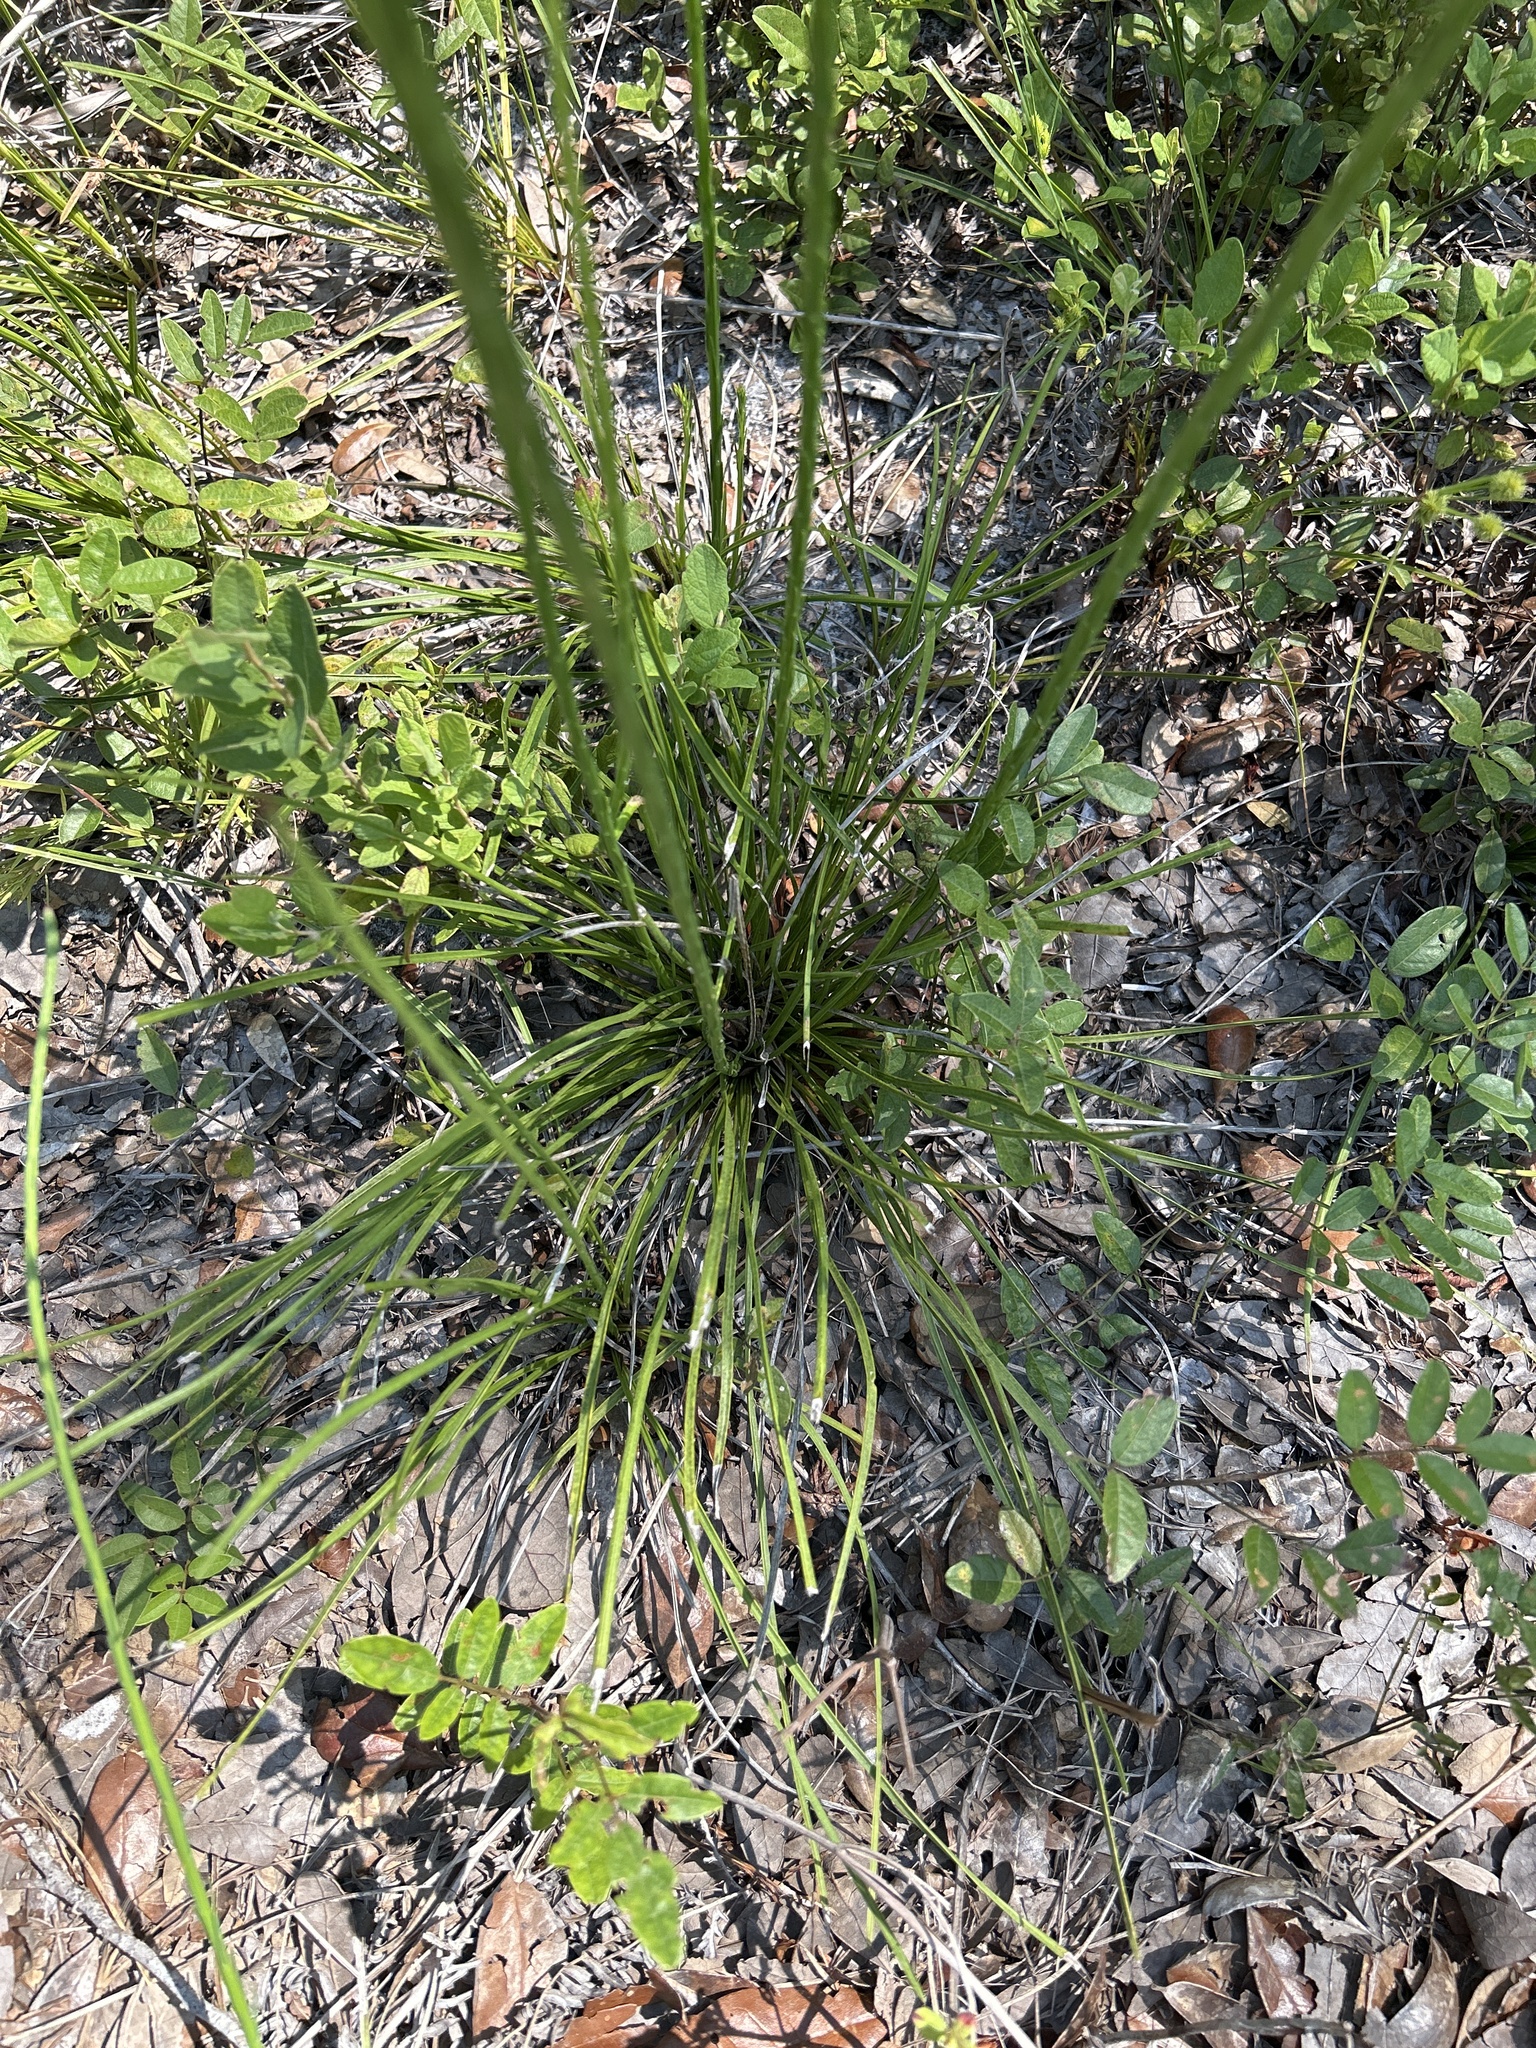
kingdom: Plantae
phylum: Tracheophyta
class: Magnoliopsida
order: Asterales
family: Asteraceae
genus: Liatris
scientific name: Liatris laevigata
